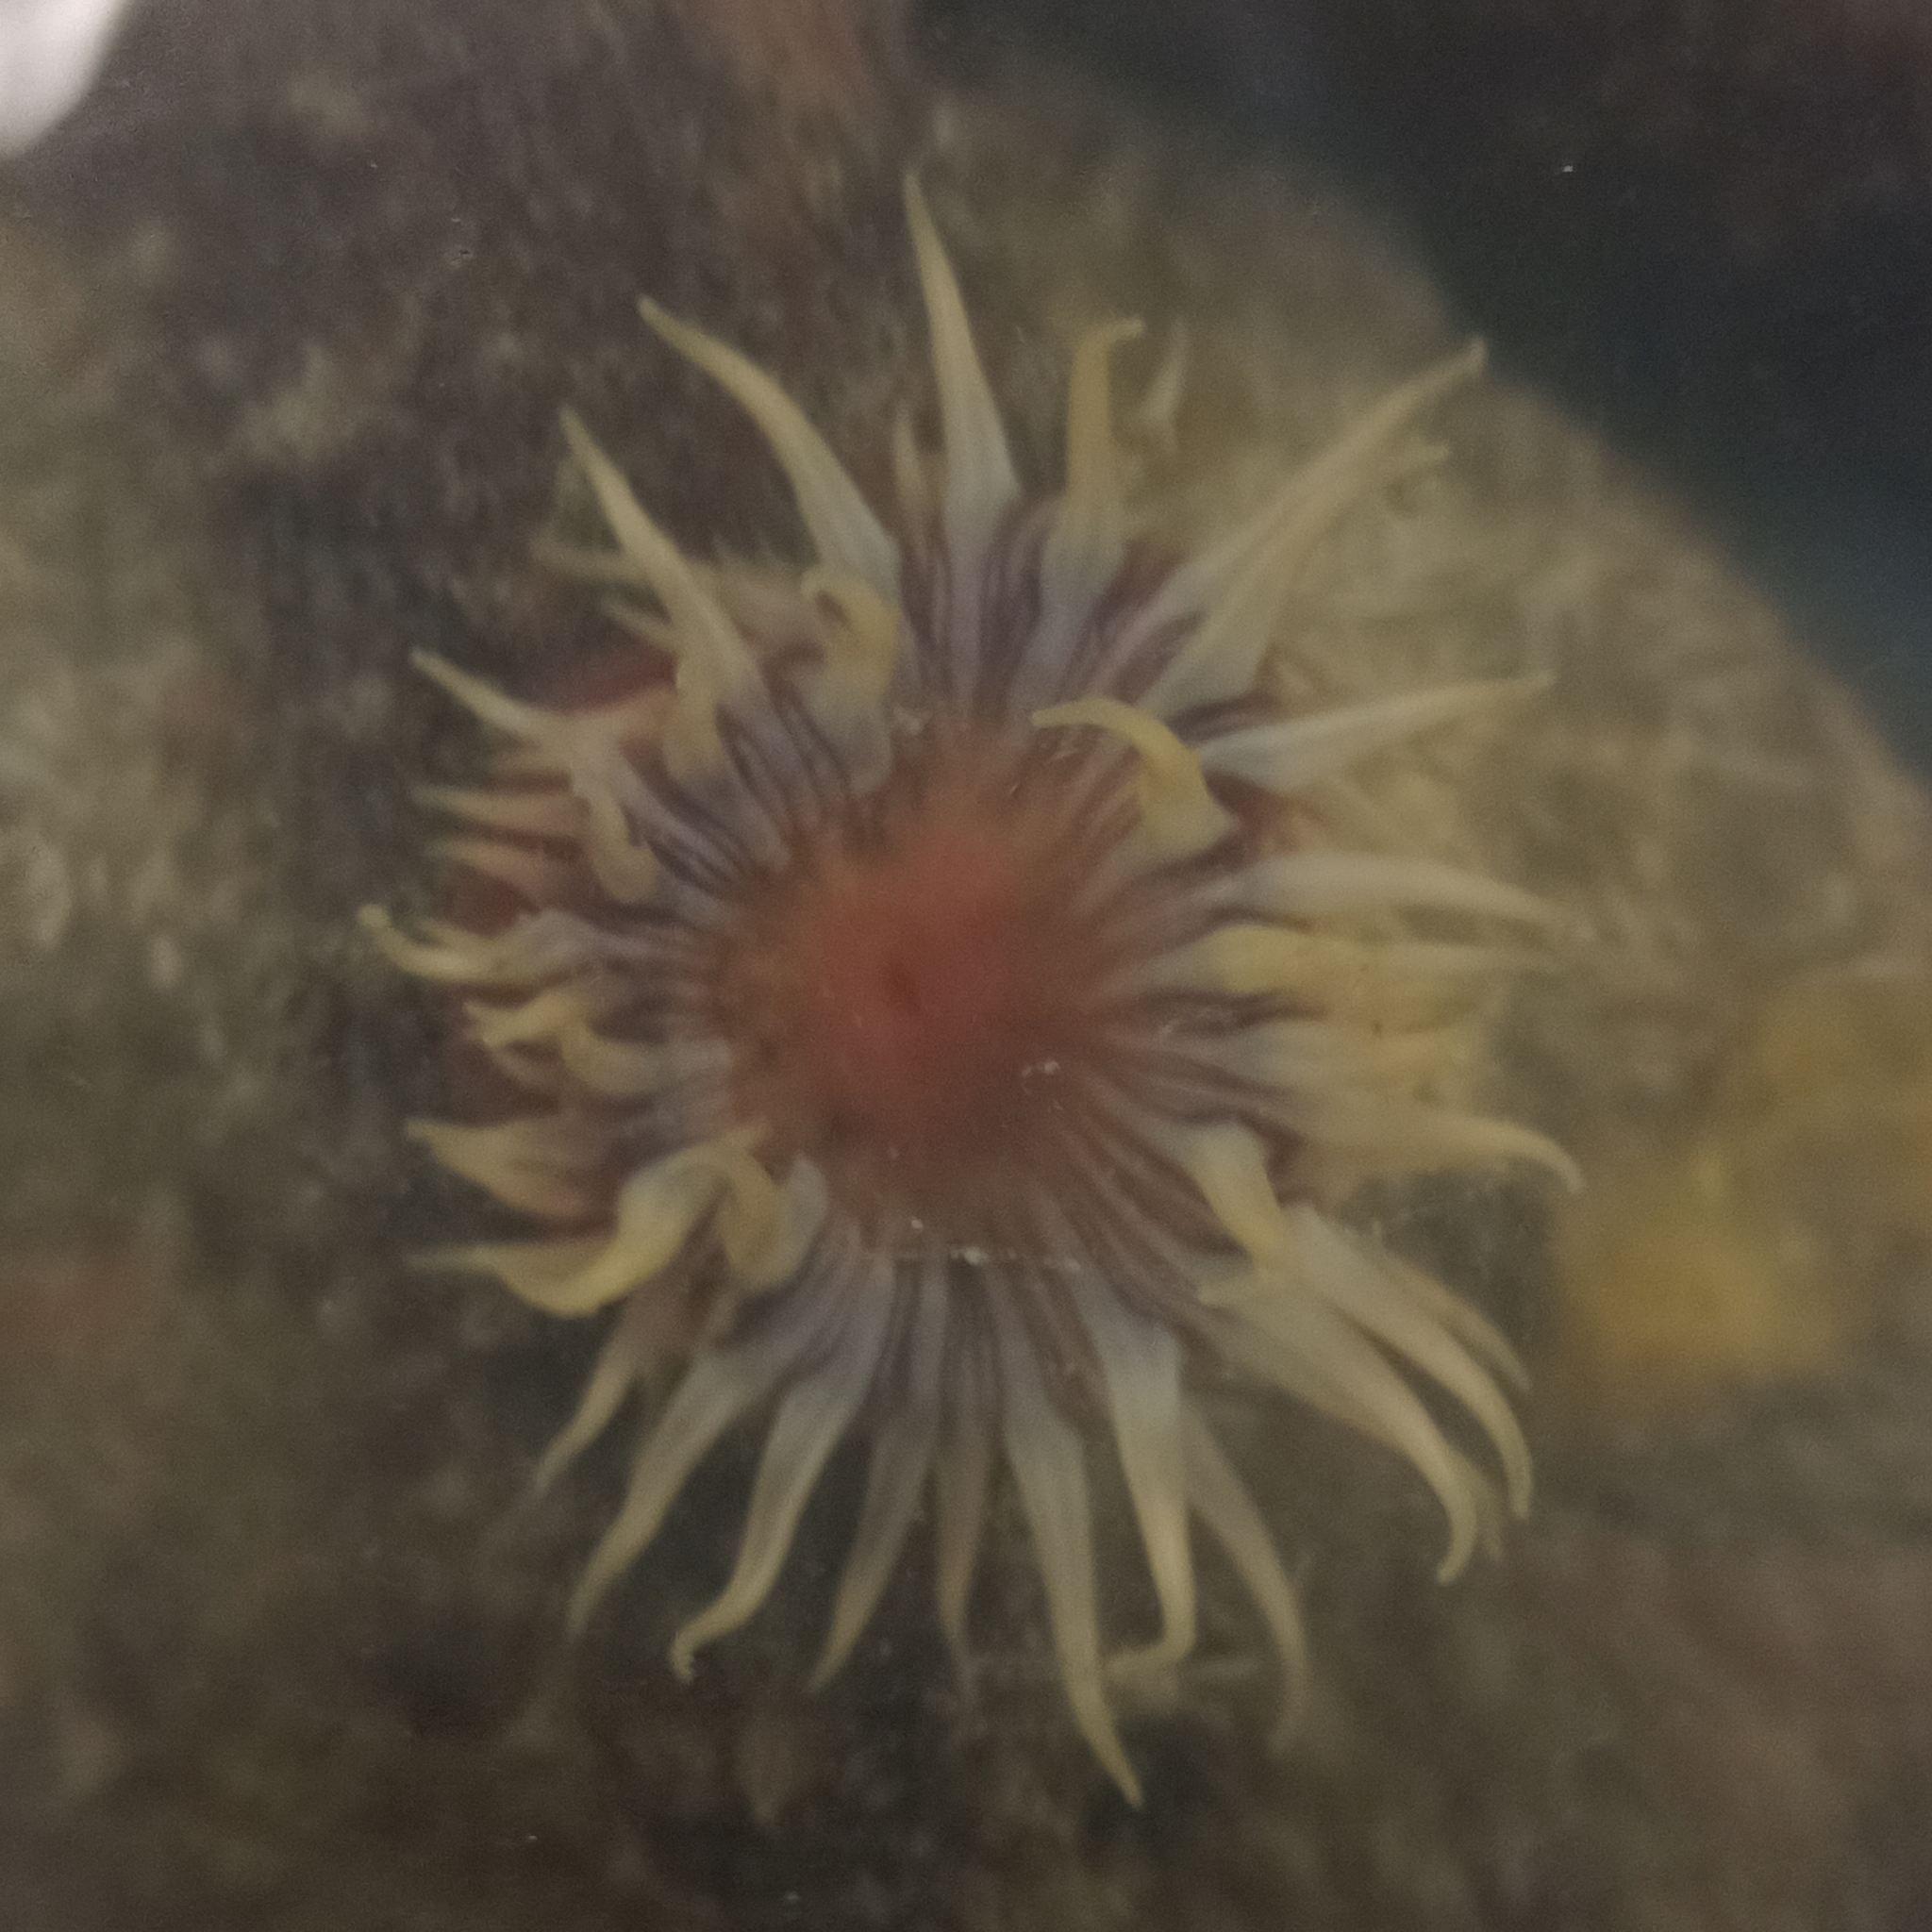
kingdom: Animalia
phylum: Cnidaria
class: Anthozoa
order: Actiniaria
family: Actiniidae
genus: Anemonia
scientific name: Anemonia sargassensis
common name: Sargassum anemone
